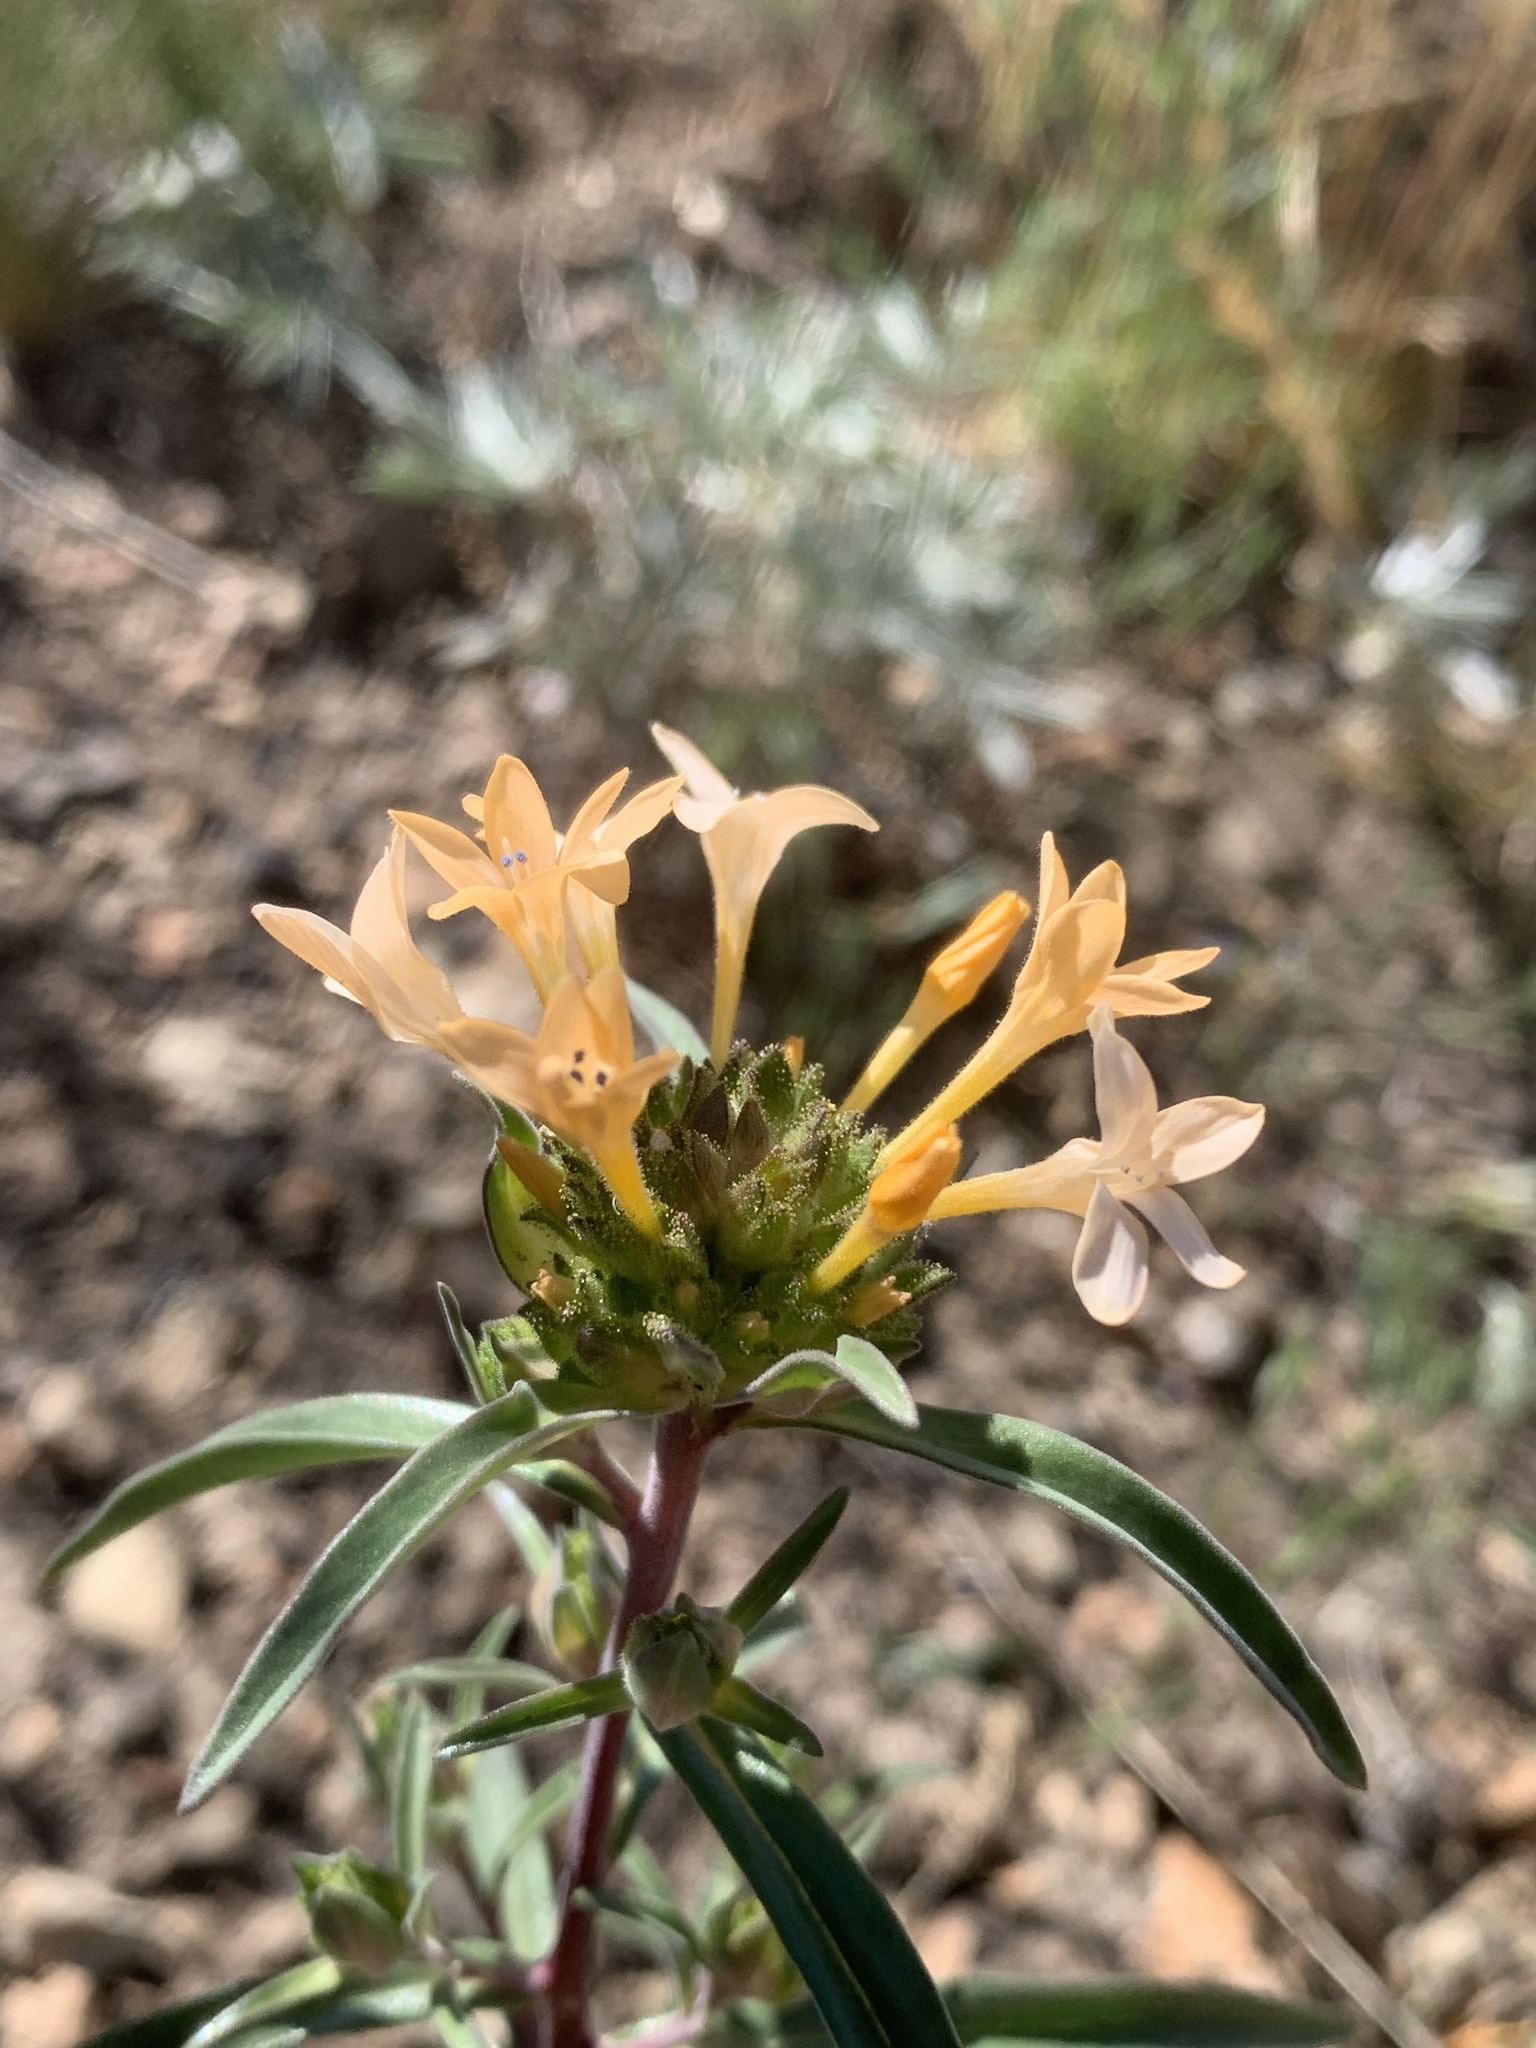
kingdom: Plantae
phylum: Tracheophyta
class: Magnoliopsida
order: Ericales
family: Polemoniaceae
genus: Collomia
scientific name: Collomia grandiflora
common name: California strawflower
